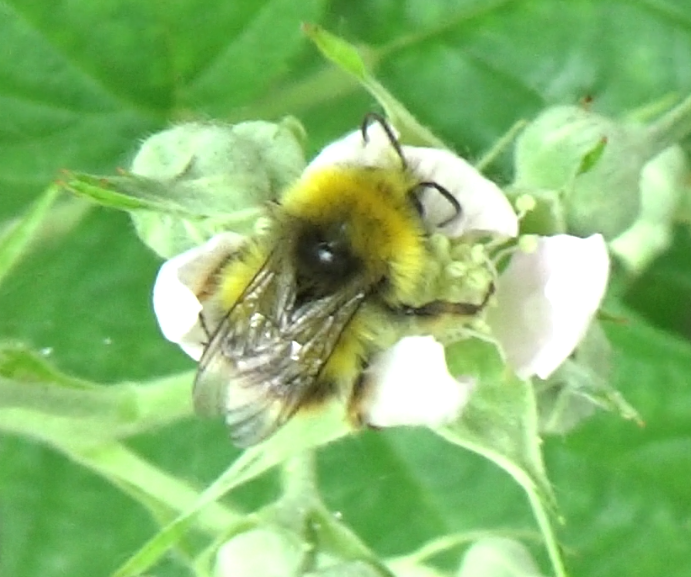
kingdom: Animalia
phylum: Arthropoda
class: Insecta
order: Hymenoptera
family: Apidae
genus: Bombus
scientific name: Bombus pratorum
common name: Early humble-bee
